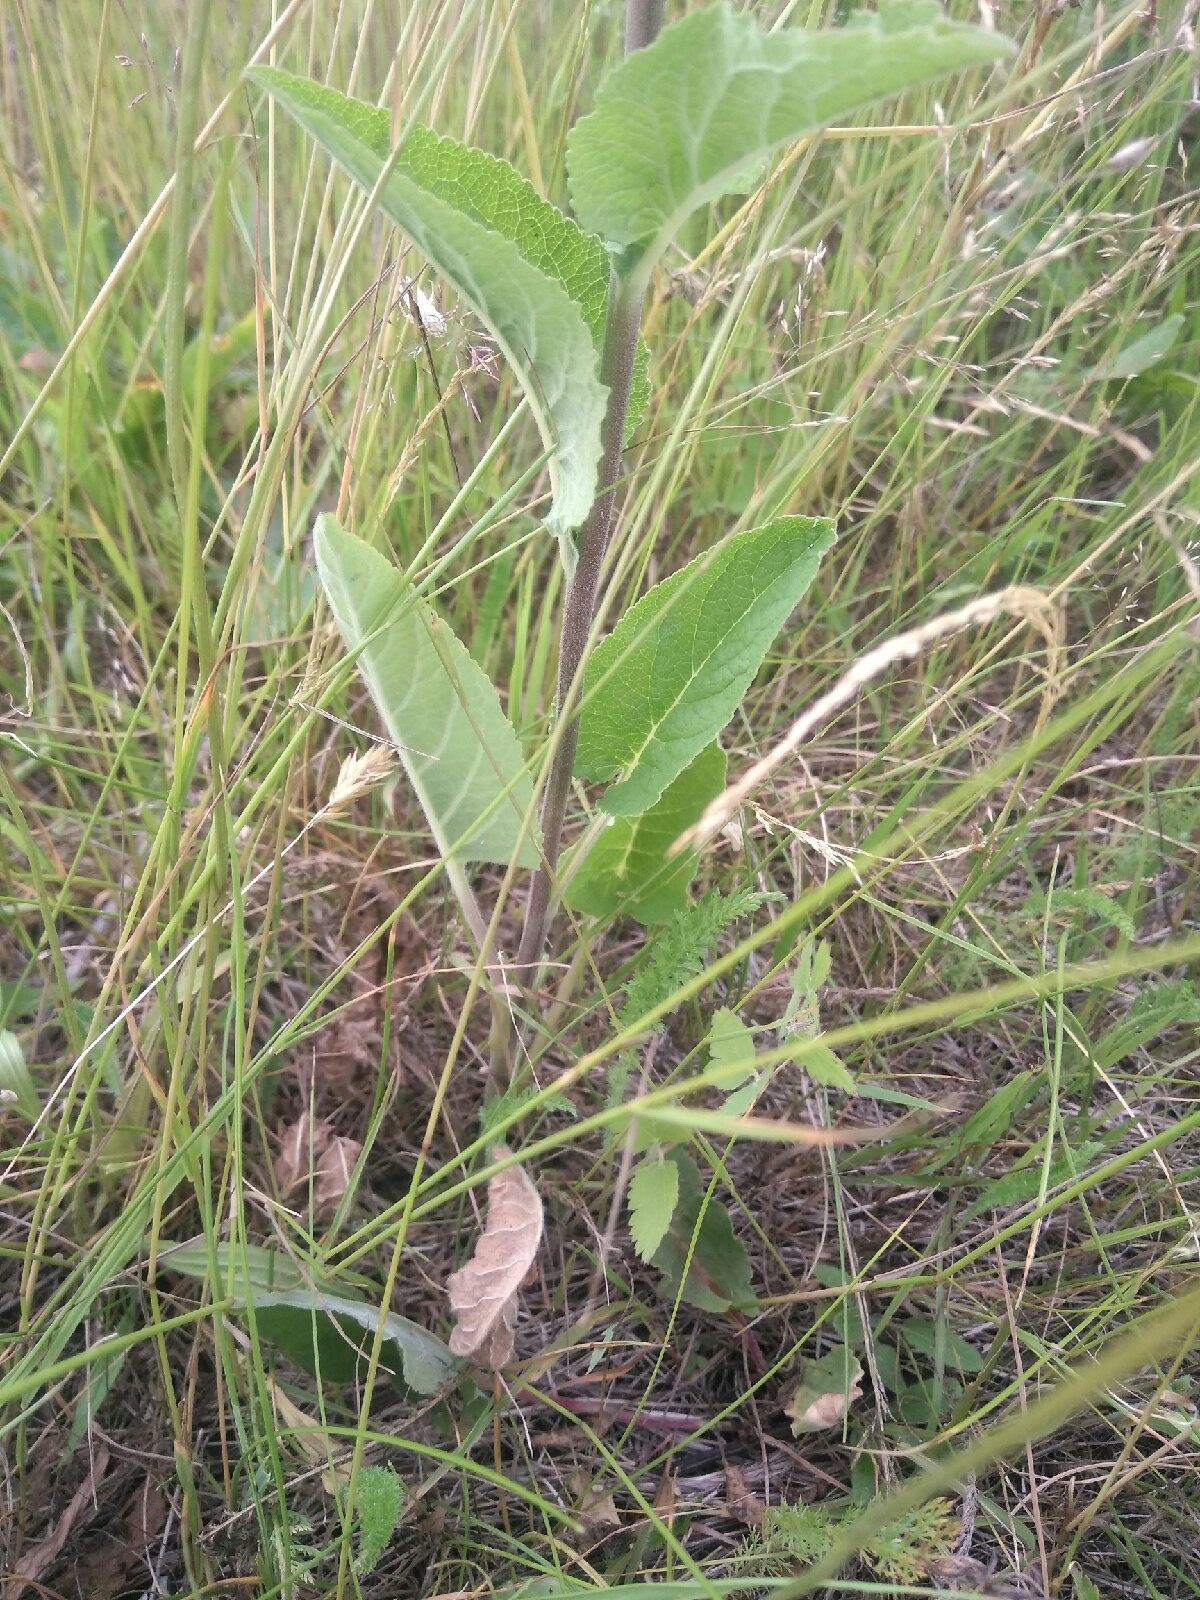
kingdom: Plantae
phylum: Tracheophyta
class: Magnoliopsida
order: Asterales
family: Campanulaceae
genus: Campanula
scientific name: Campanula bononiensis
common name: Pale bellflower
